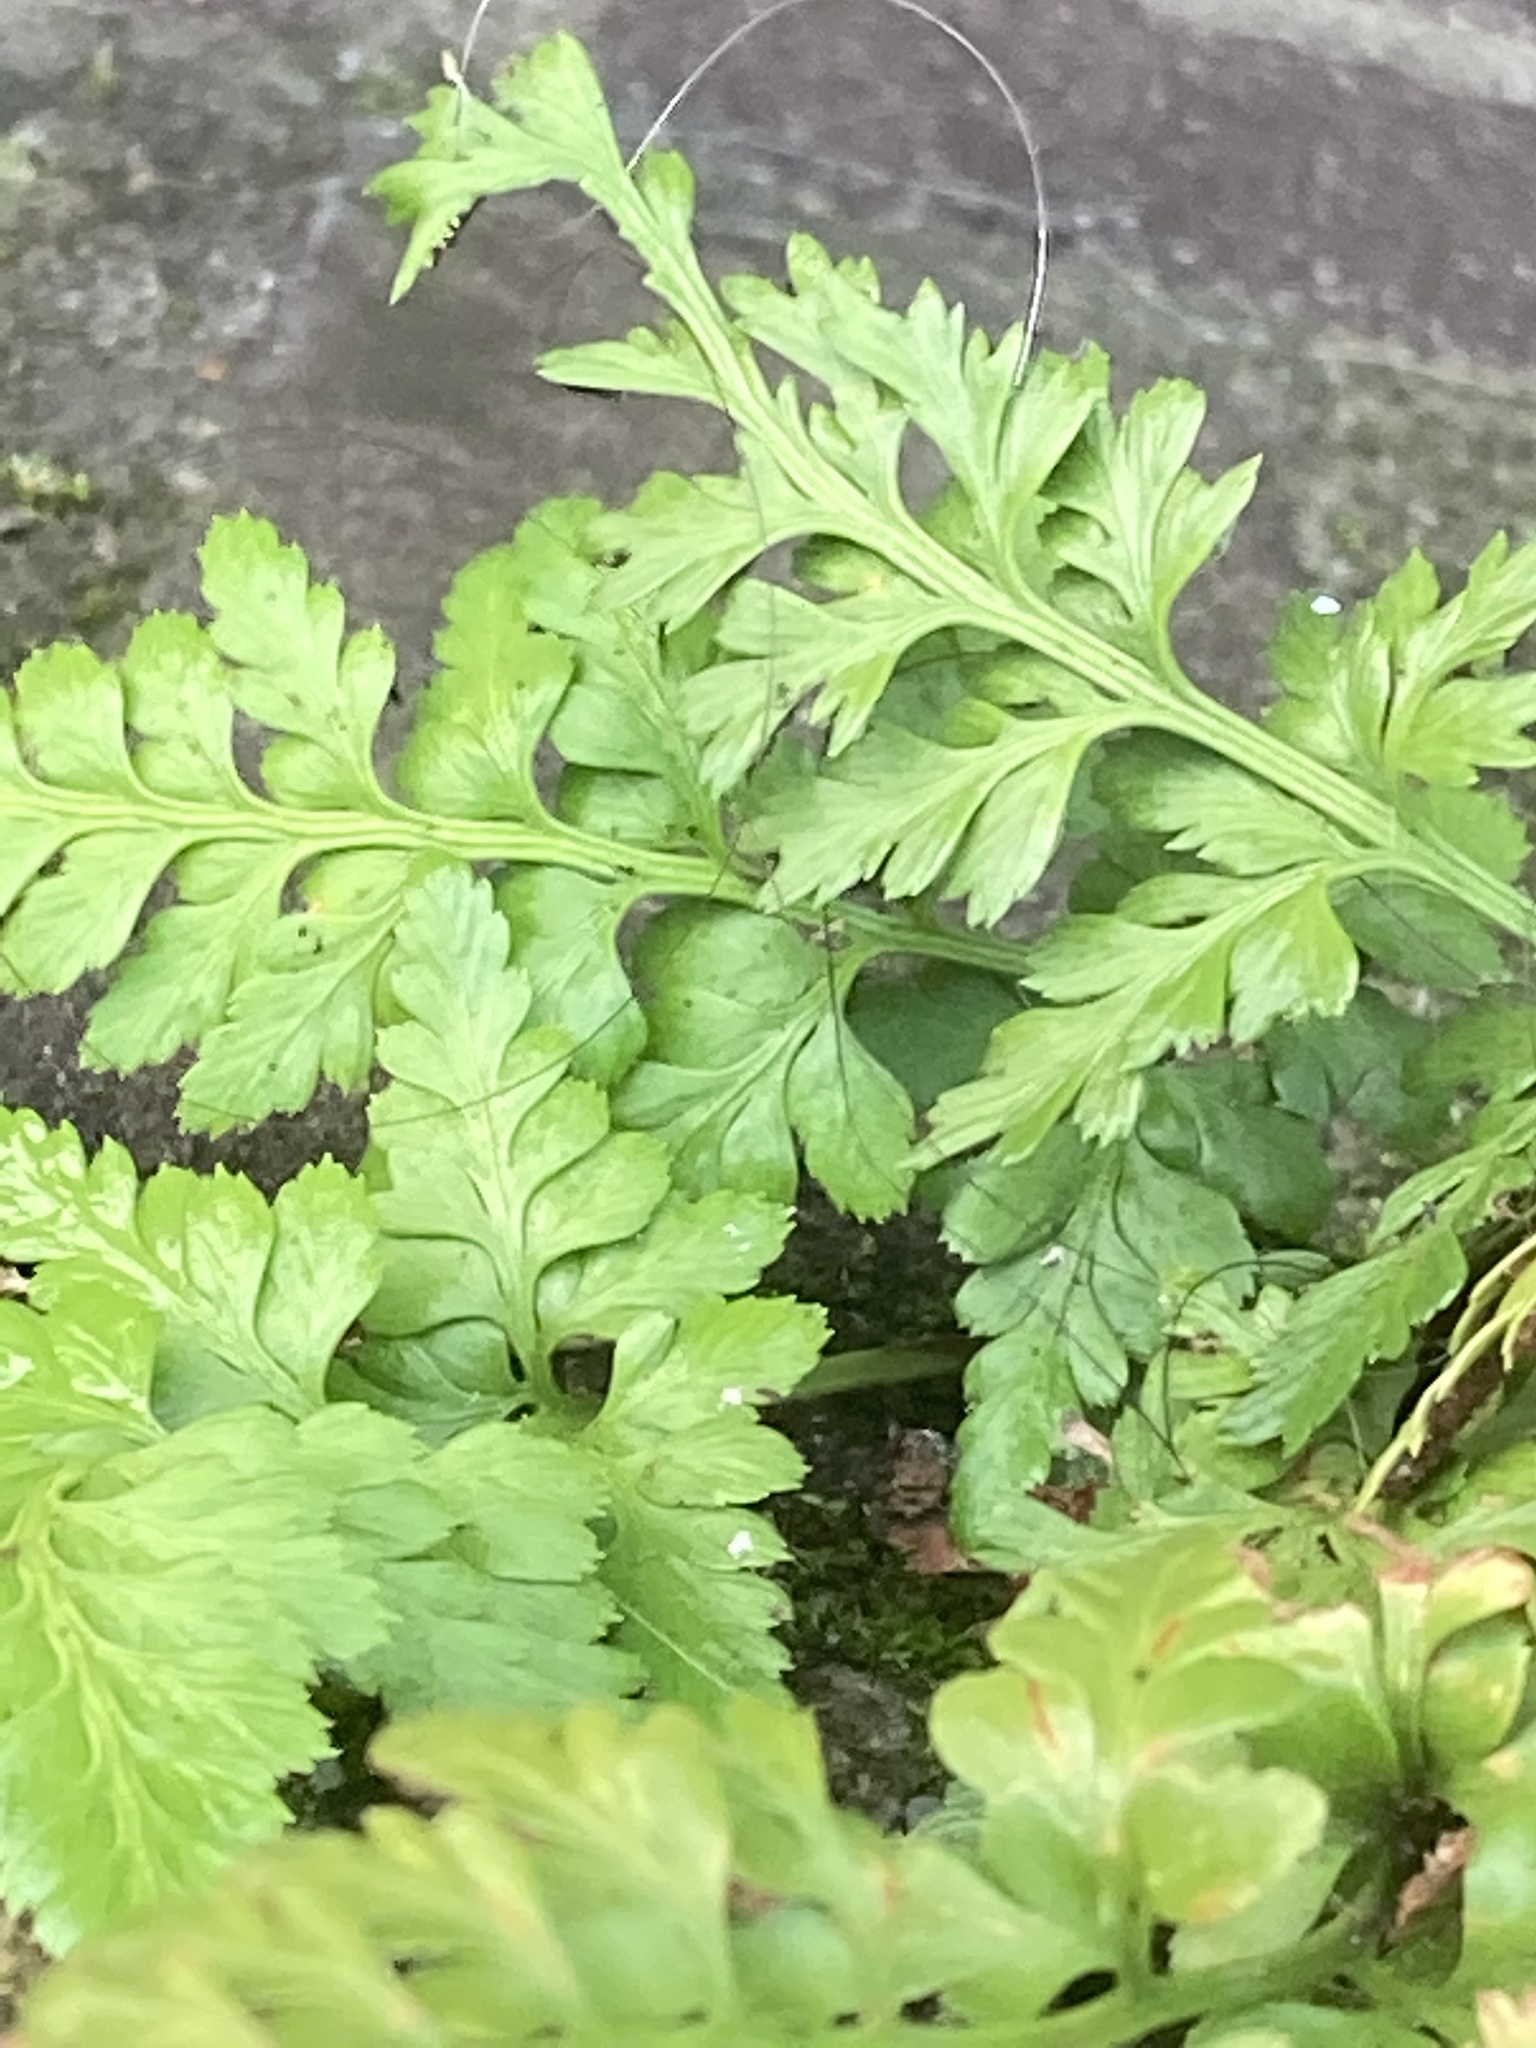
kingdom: Plantae
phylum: Tracheophyta
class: Polypodiopsida
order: Polypodiales
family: Aspleniaceae
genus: Asplenium
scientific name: Asplenium adiantum-nigrum
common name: Black spleenwort
